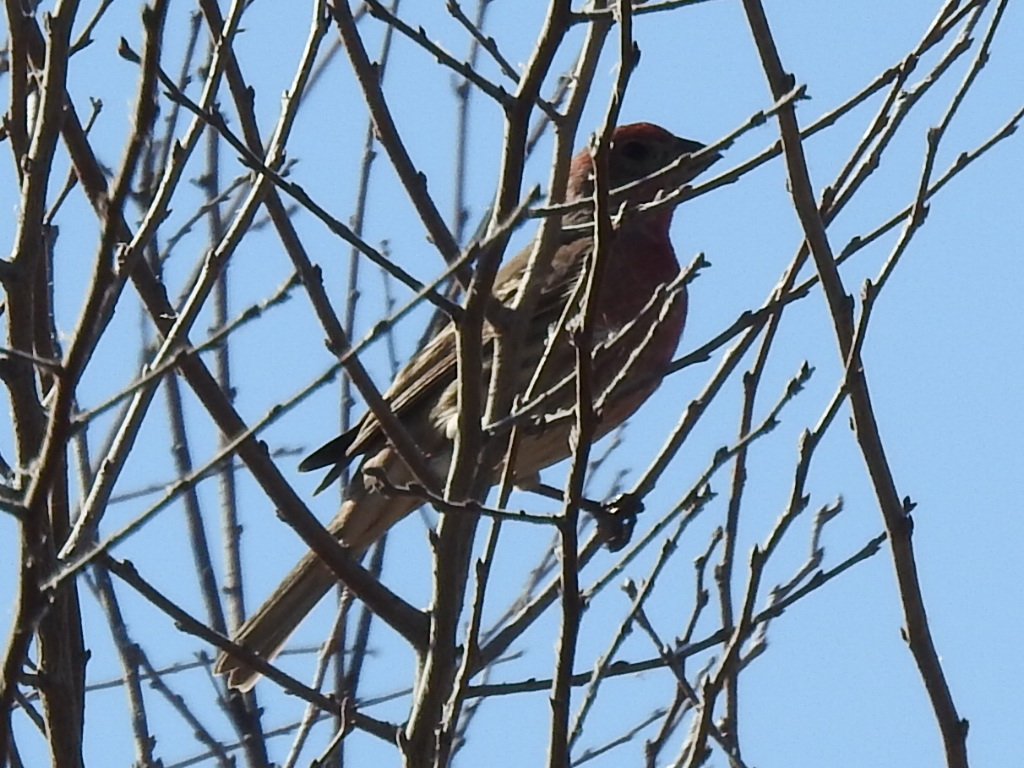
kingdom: Animalia
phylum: Chordata
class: Aves
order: Passeriformes
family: Fringillidae
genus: Haemorhous
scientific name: Haemorhous mexicanus
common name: House finch
